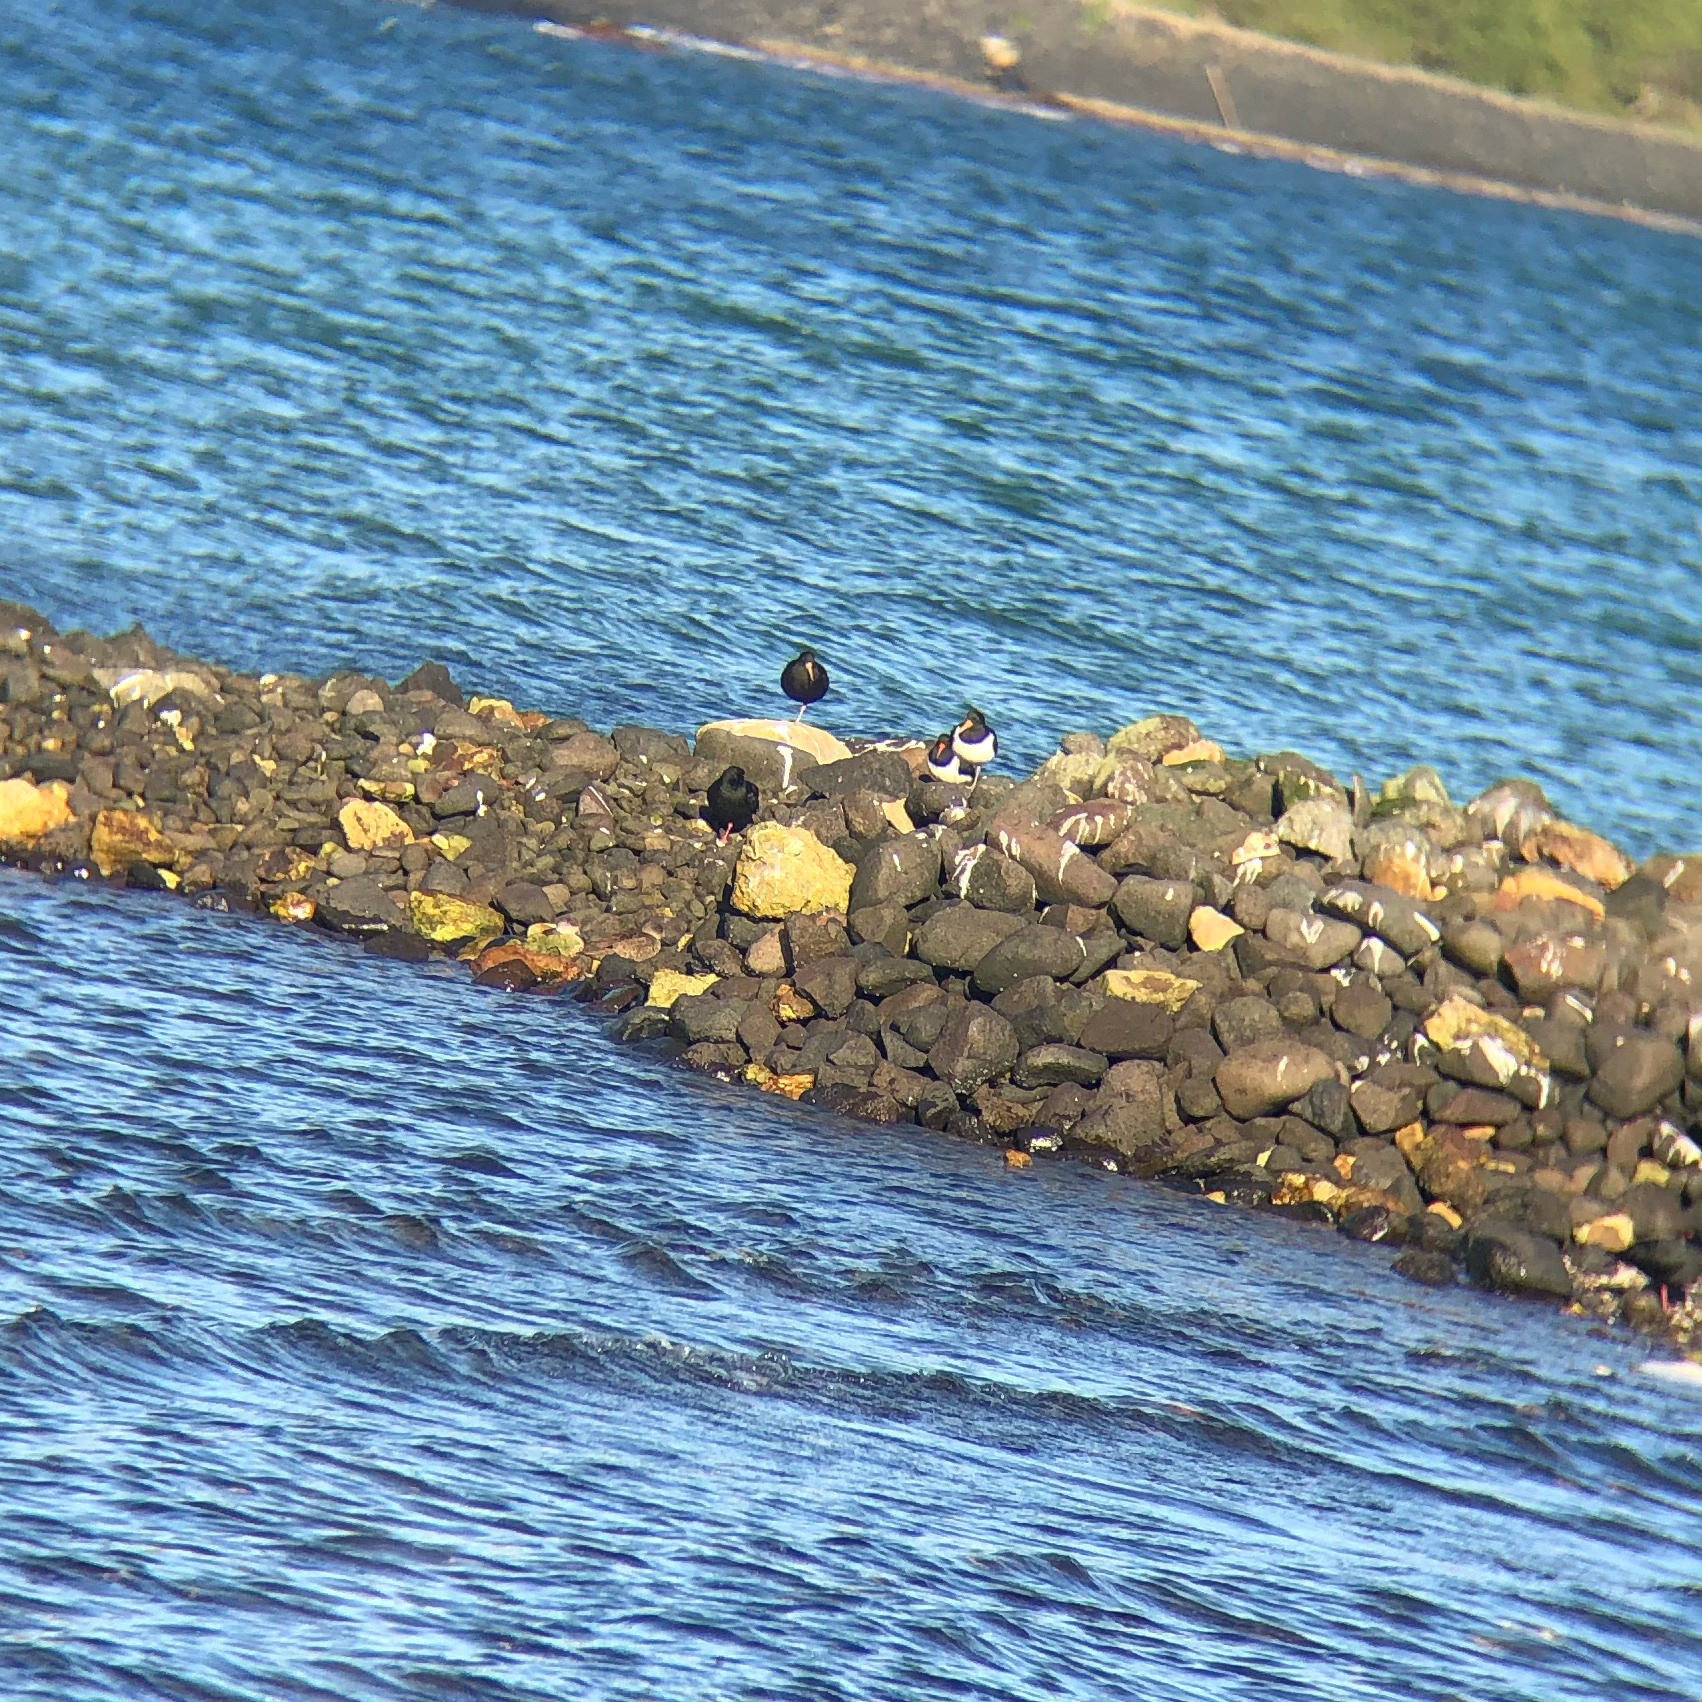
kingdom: Animalia
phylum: Chordata
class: Aves
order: Charadriiformes
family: Haematopodidae
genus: Haematopus
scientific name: Haematopus finschi
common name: South island oystercatcher
